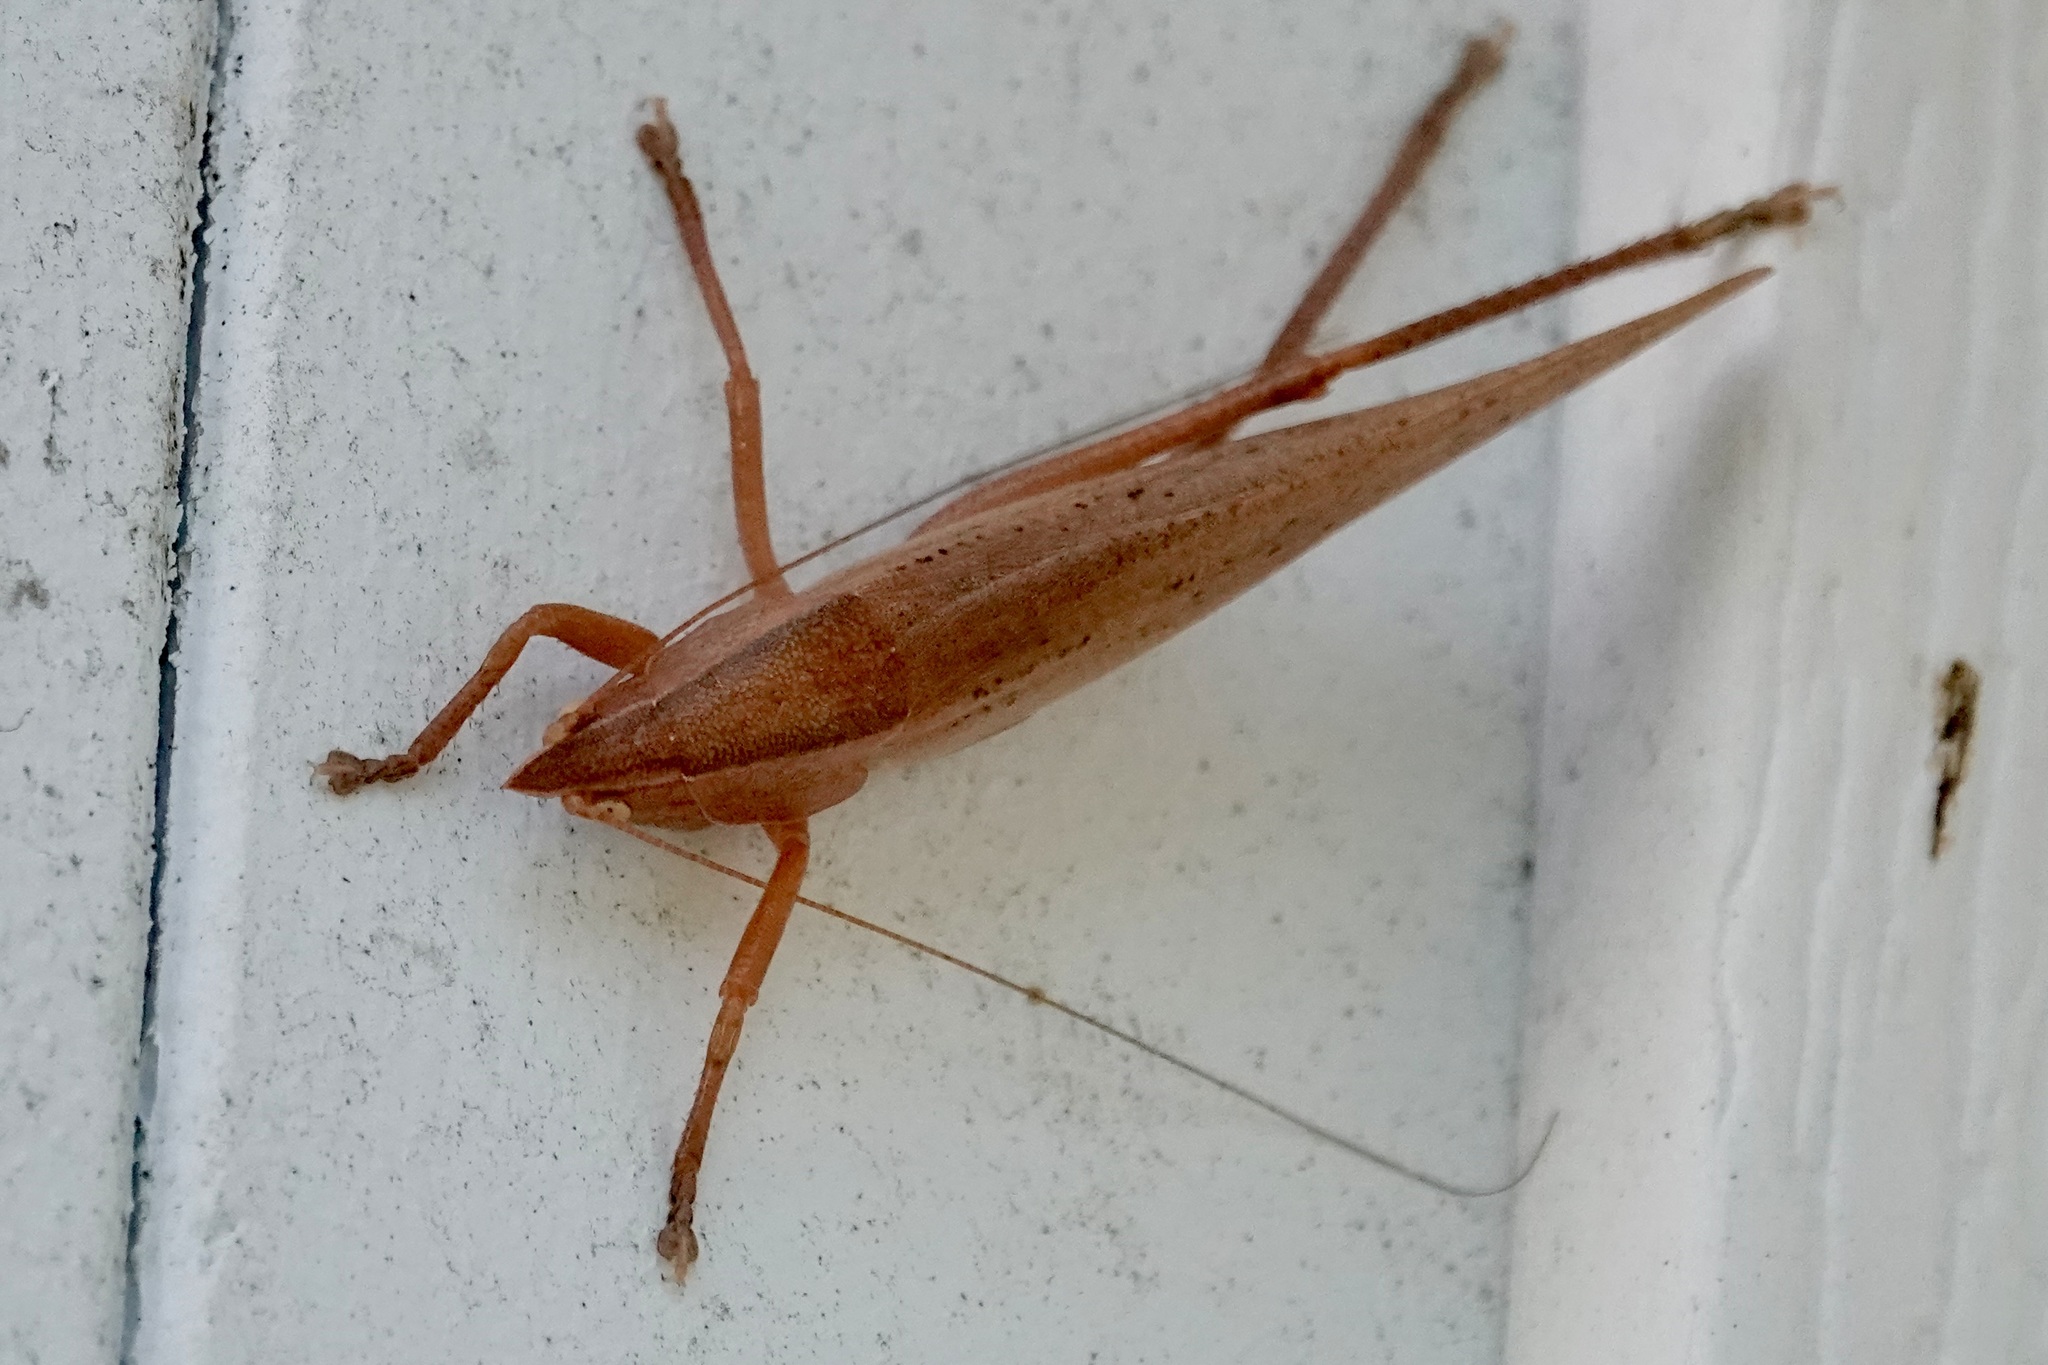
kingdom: Animalia
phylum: Arthropoda
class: Insecta
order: Orthoptera
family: Tettigoniidae
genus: Pyrgocorypha
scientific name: Pyrgocorypha uncinata
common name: Hook-faced conehead
